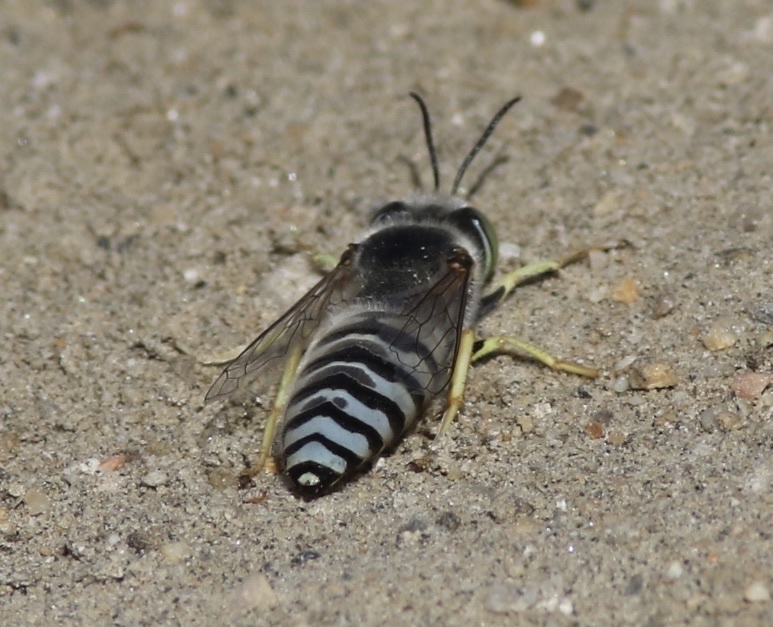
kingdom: Animalia
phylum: Arthropoda
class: Insecta
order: Hymenoptera
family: Crabronidae
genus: Bembix
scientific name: Bembix americana
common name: American sand wasp
